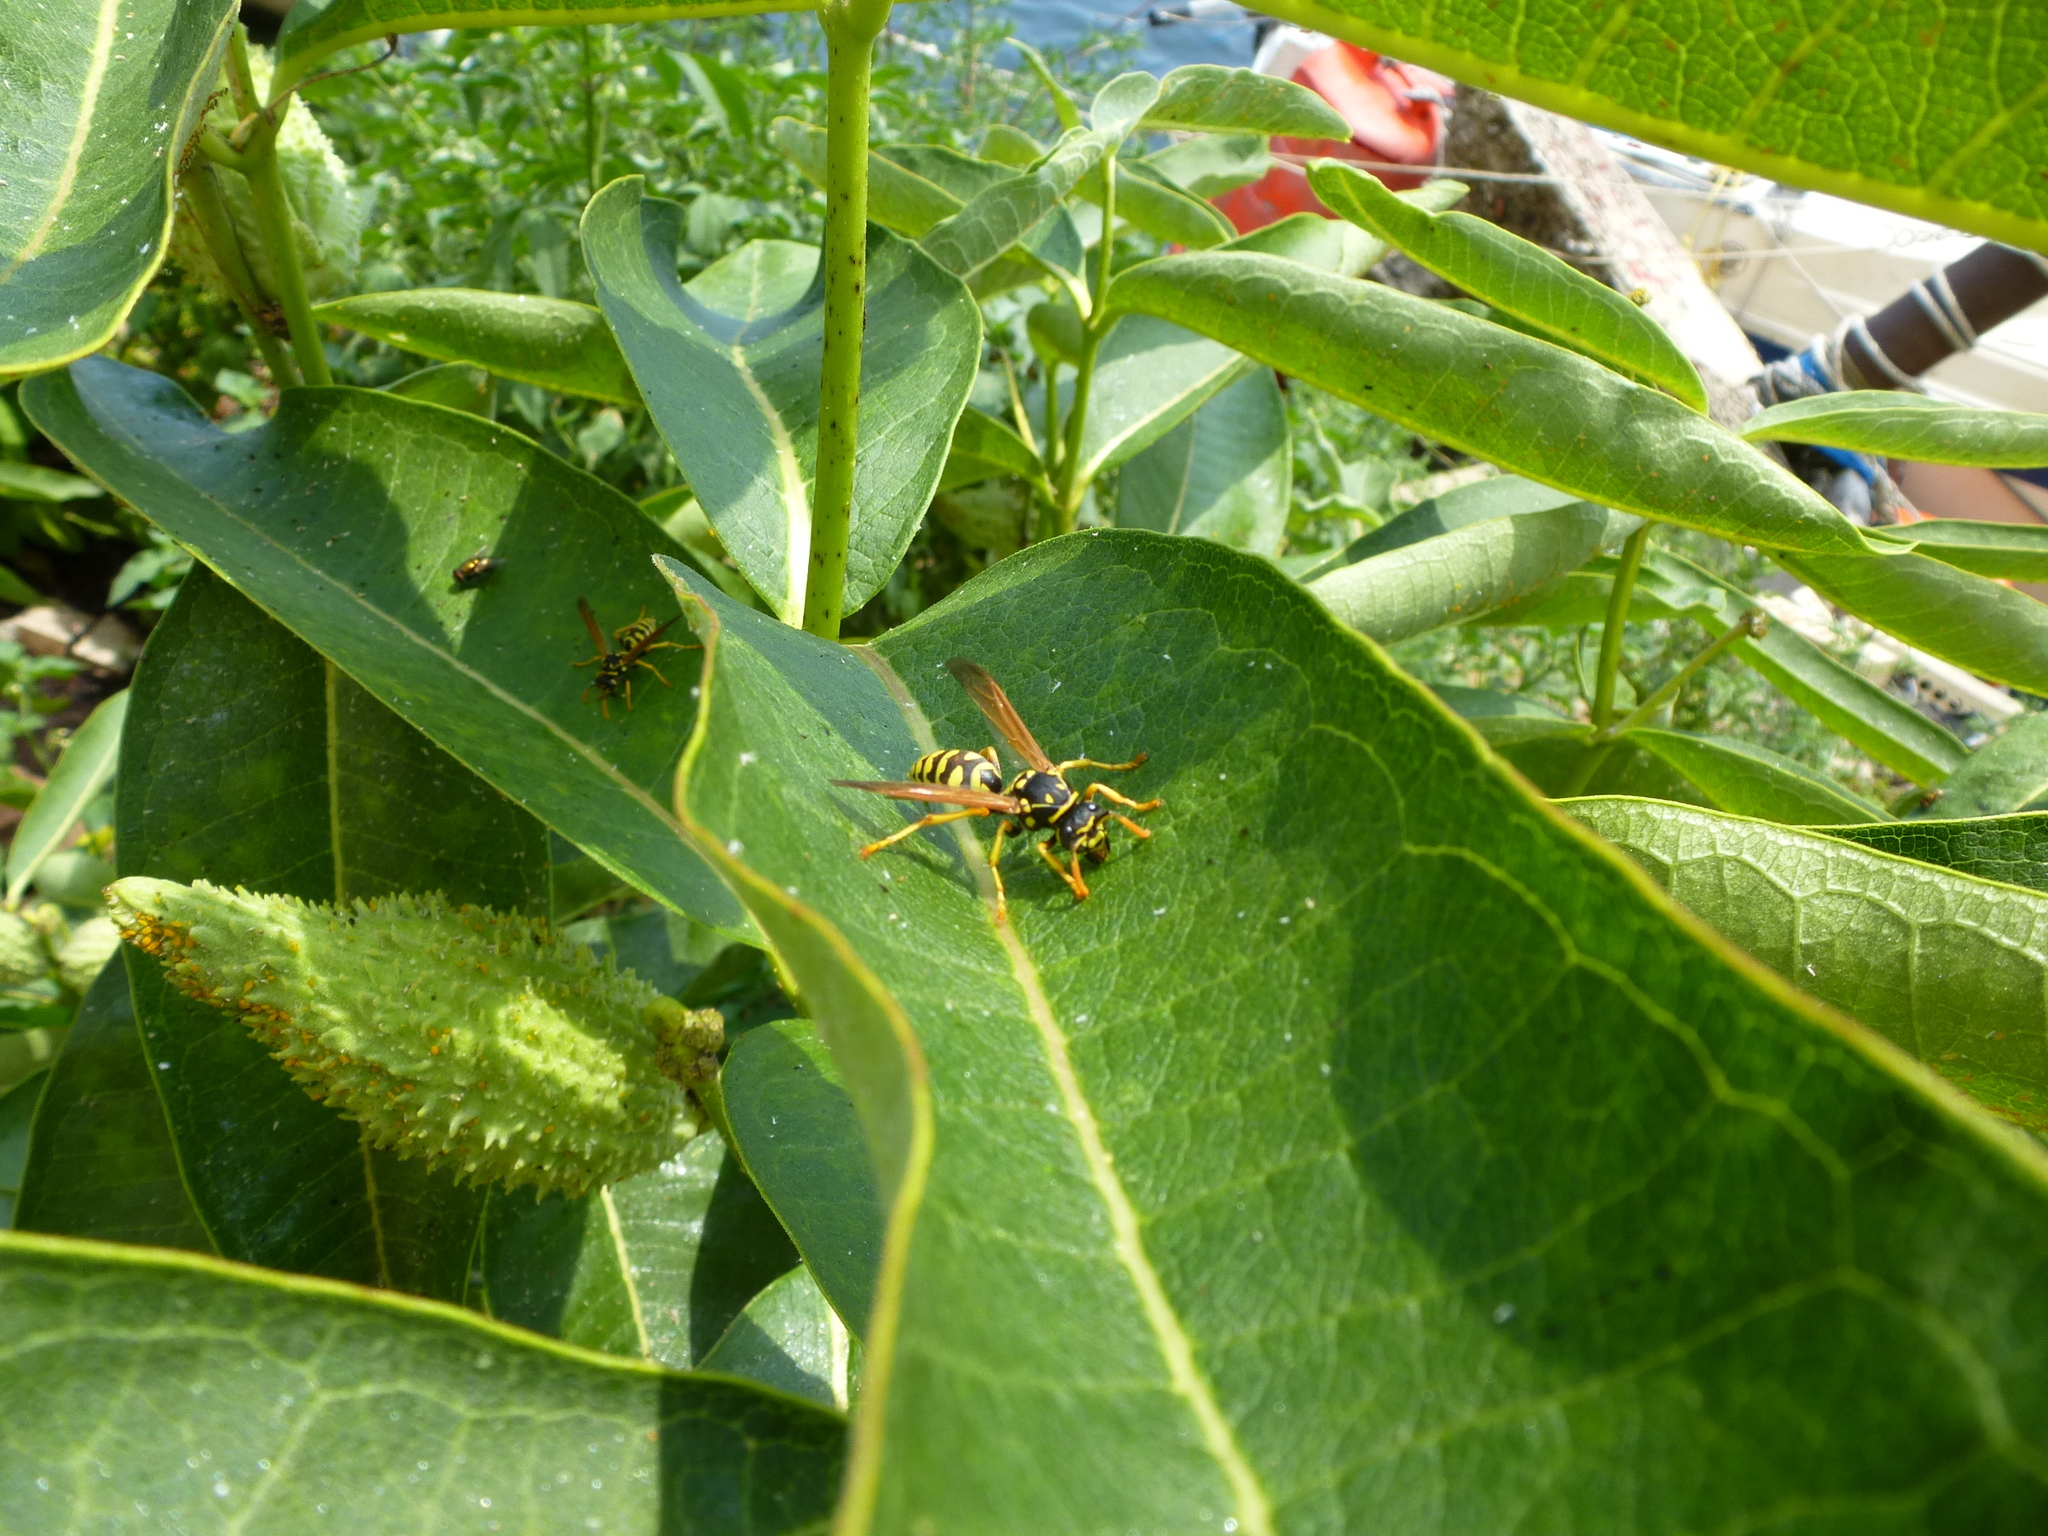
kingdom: Animalia
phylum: Arthropoda
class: Insecta
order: Hymenoptera
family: Eumenidae
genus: Polistes
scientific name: Polistes dominula
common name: Paper wasp
